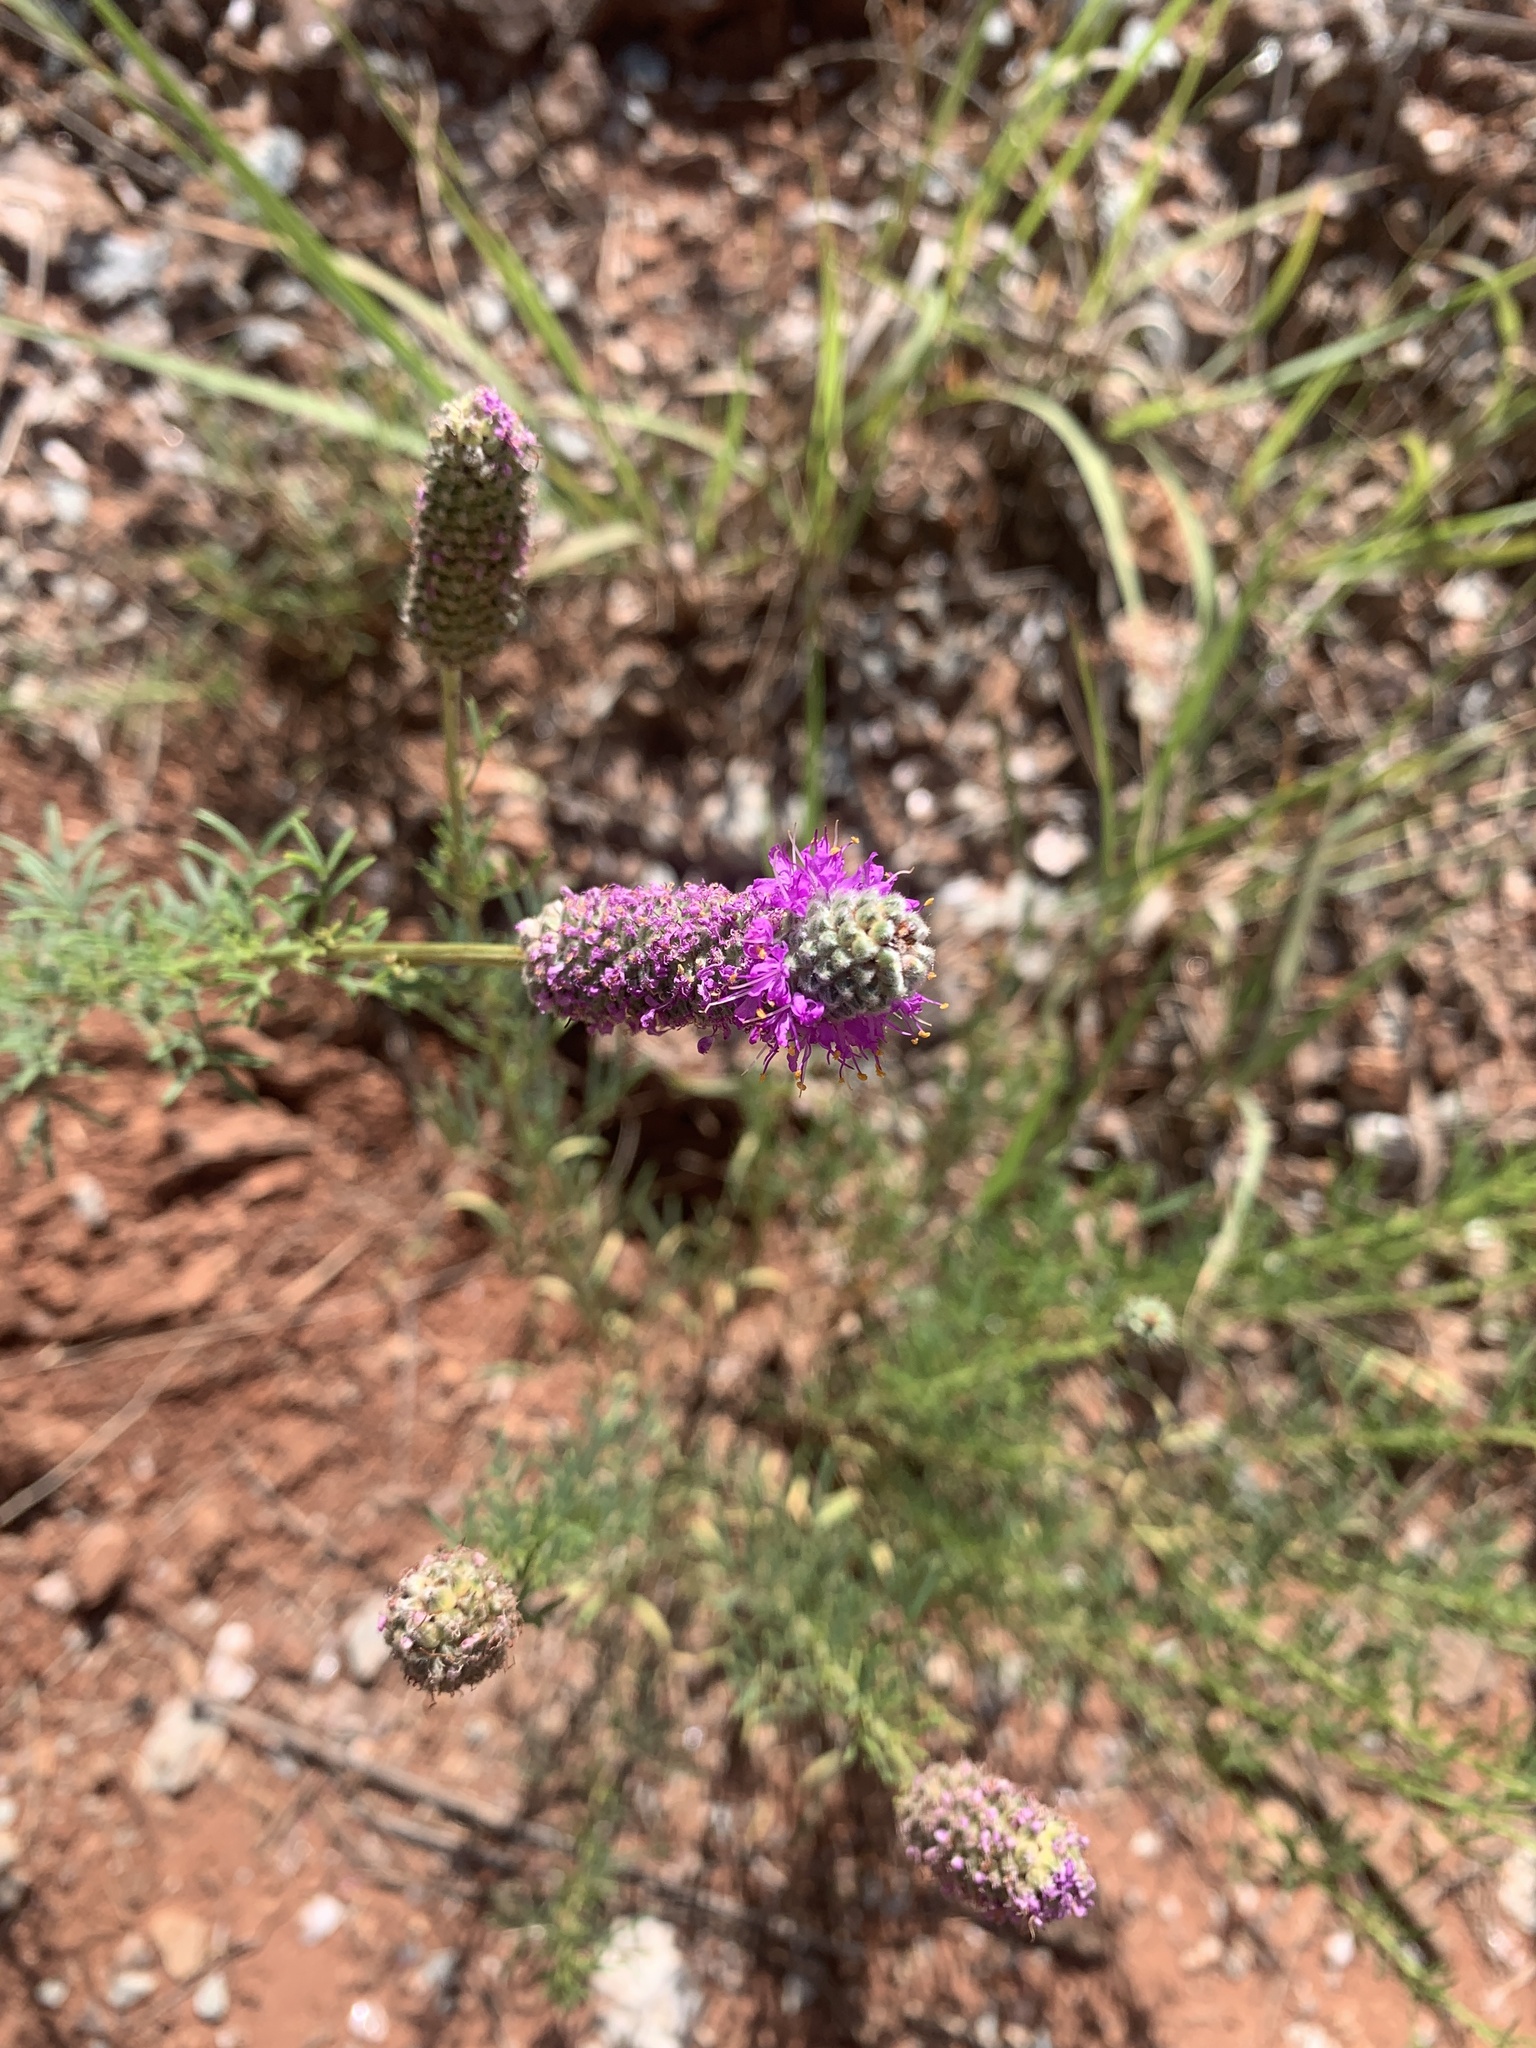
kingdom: Plantae
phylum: Tracheophyta
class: Magnoliopsida
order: Fabales
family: Fabaceae
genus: Dalea
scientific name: Dalea purpurea
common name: Purple prairie-clover
